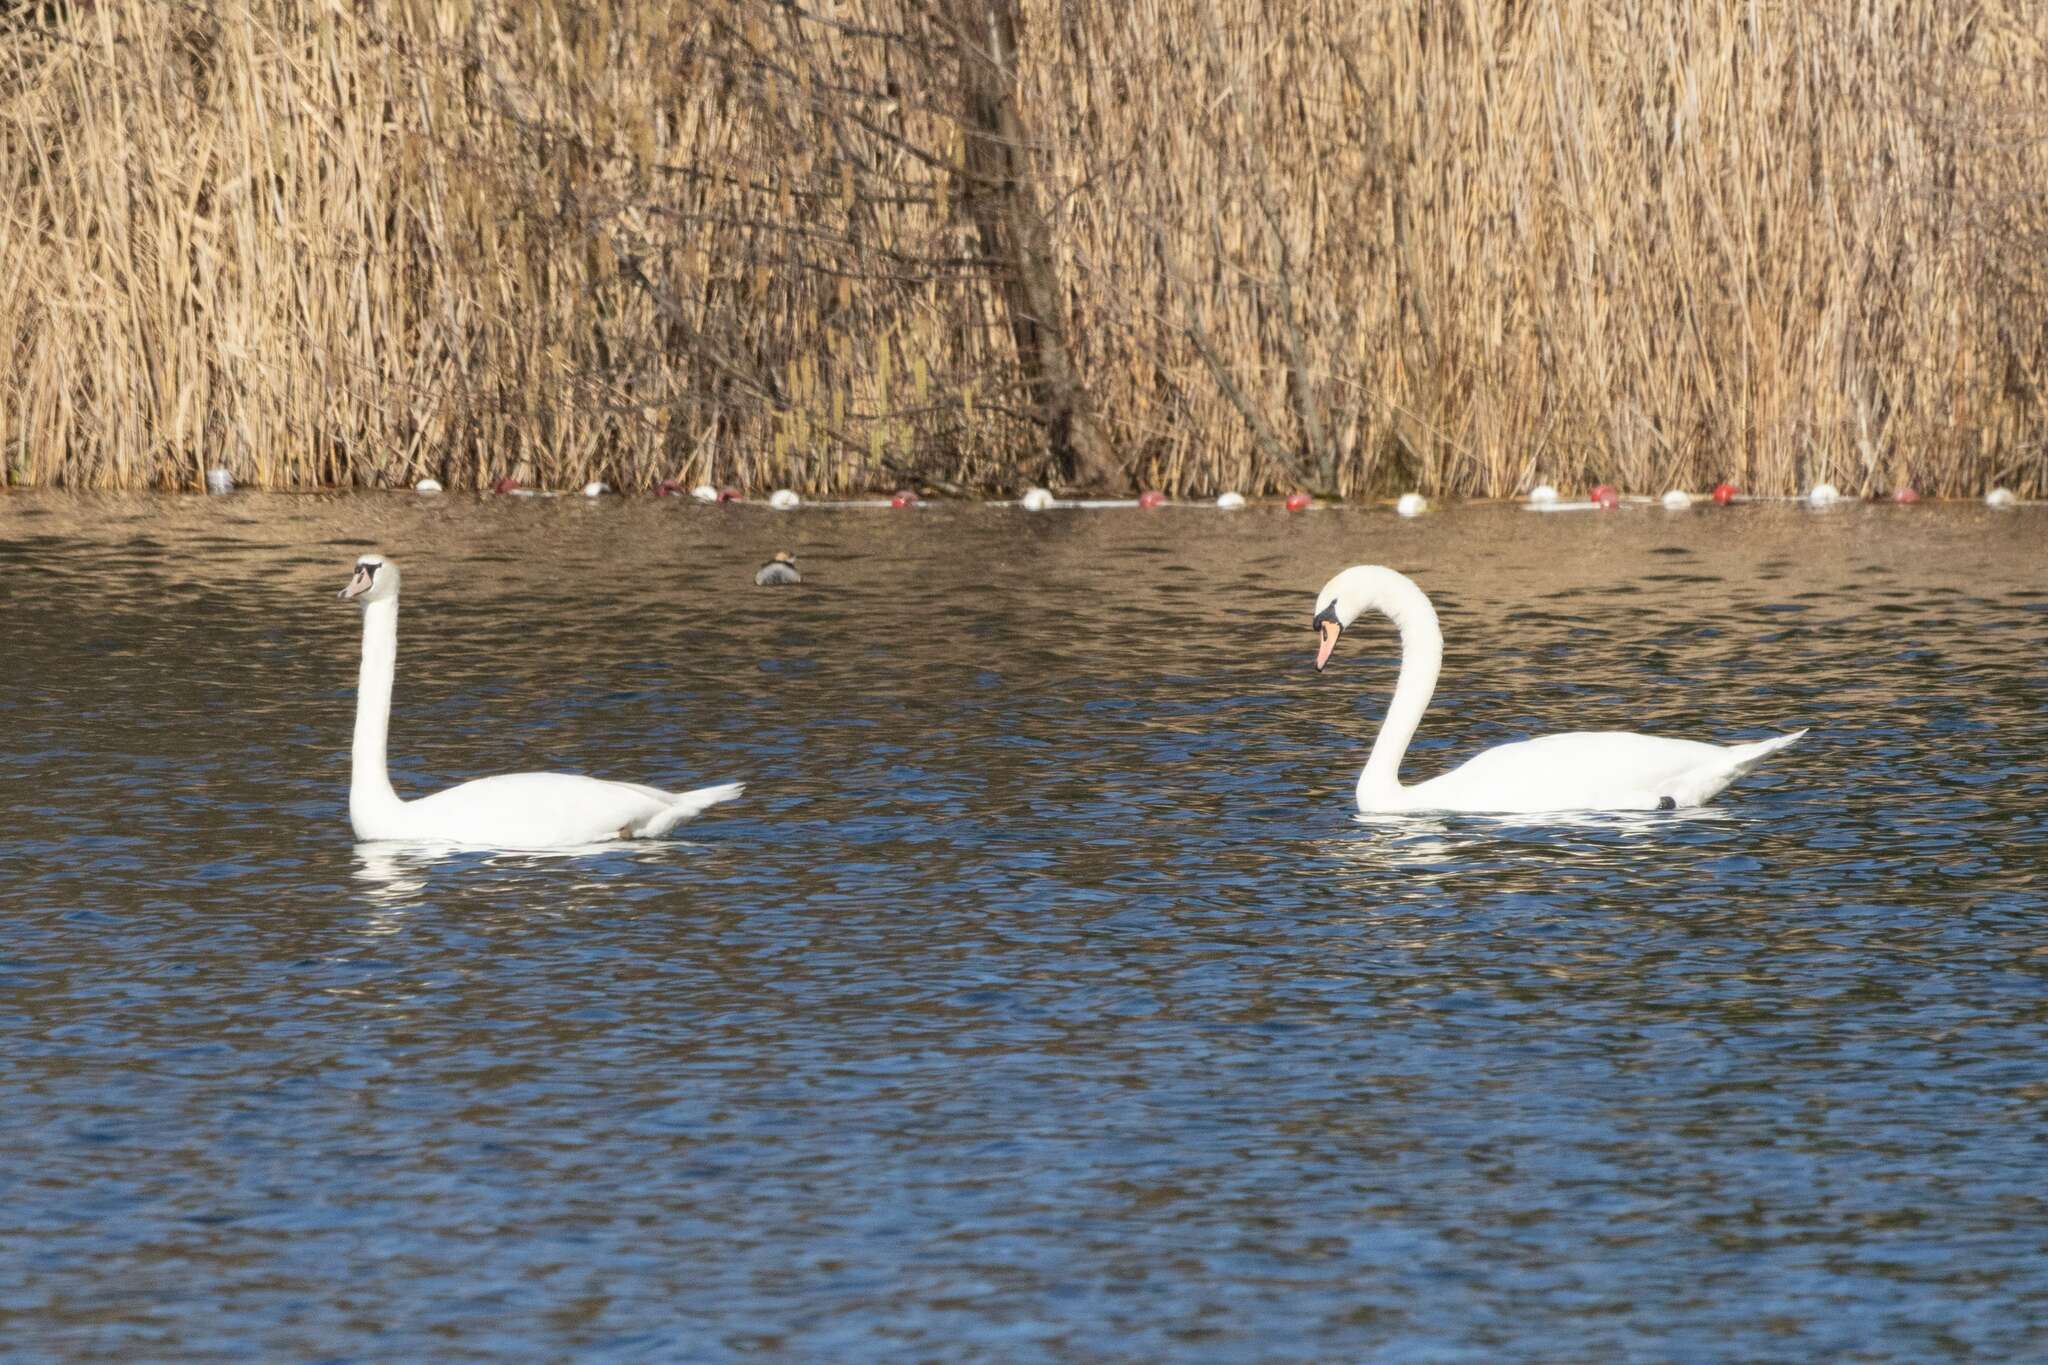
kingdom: Animalia
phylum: Chordata
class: Aves
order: Anseriformes
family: Anatidae
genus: Cygnus
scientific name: Cygnus olor
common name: Mute swan
